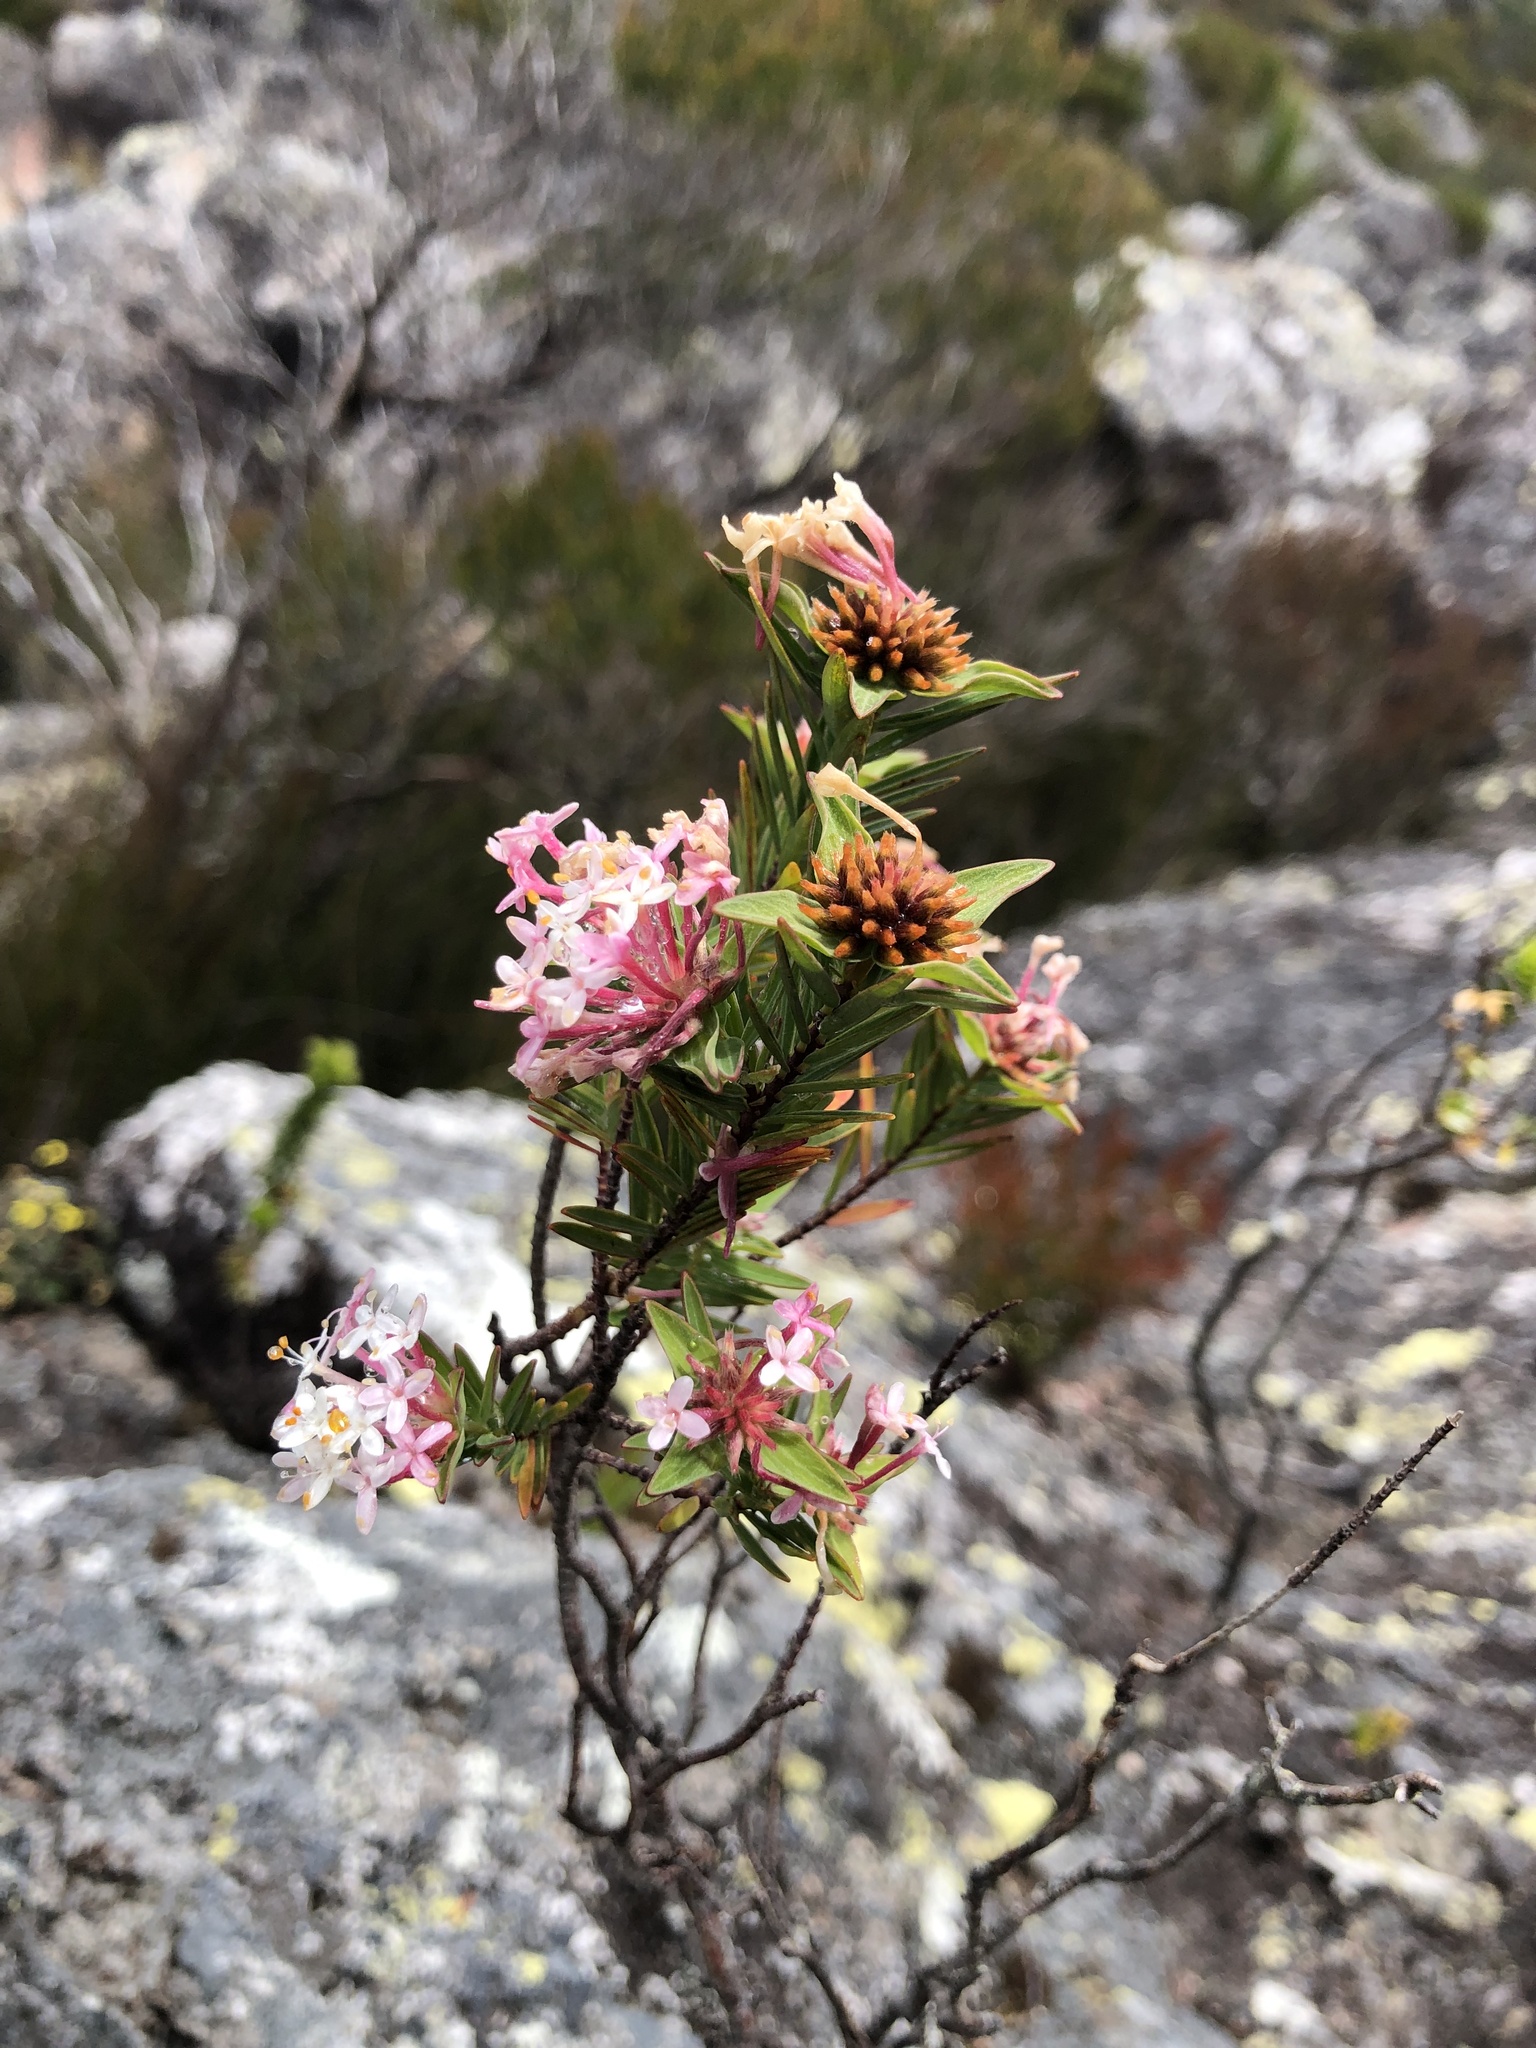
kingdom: Plantae
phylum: Tracheophyta
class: Magnoliopsida
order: Malvales
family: Thymelaeaceae
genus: Pimelea
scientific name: Pimelea linifolia
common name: Queen-of-the-bush
